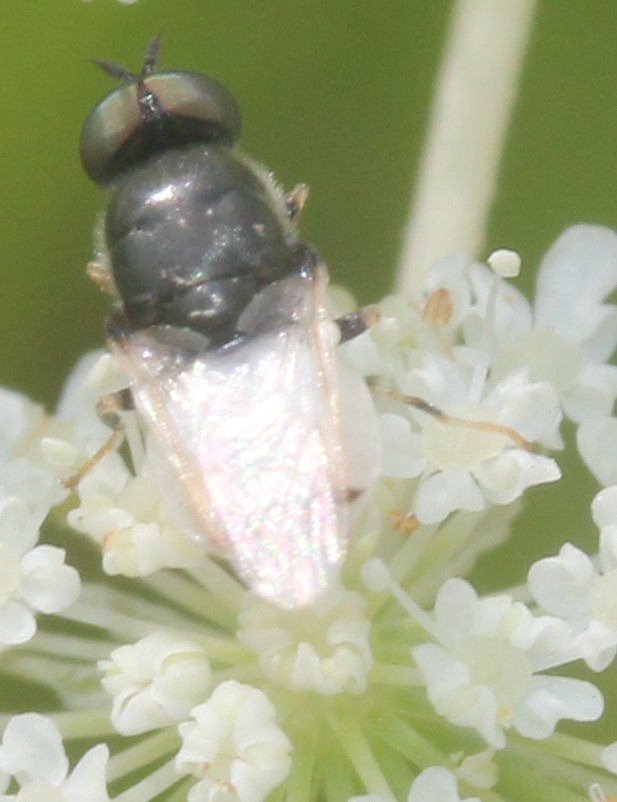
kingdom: Animalia
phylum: Arthropoda
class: Insecta
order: Diptera
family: Stratiomyidae
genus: Nemotelus
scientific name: Nemotelus kansensis
